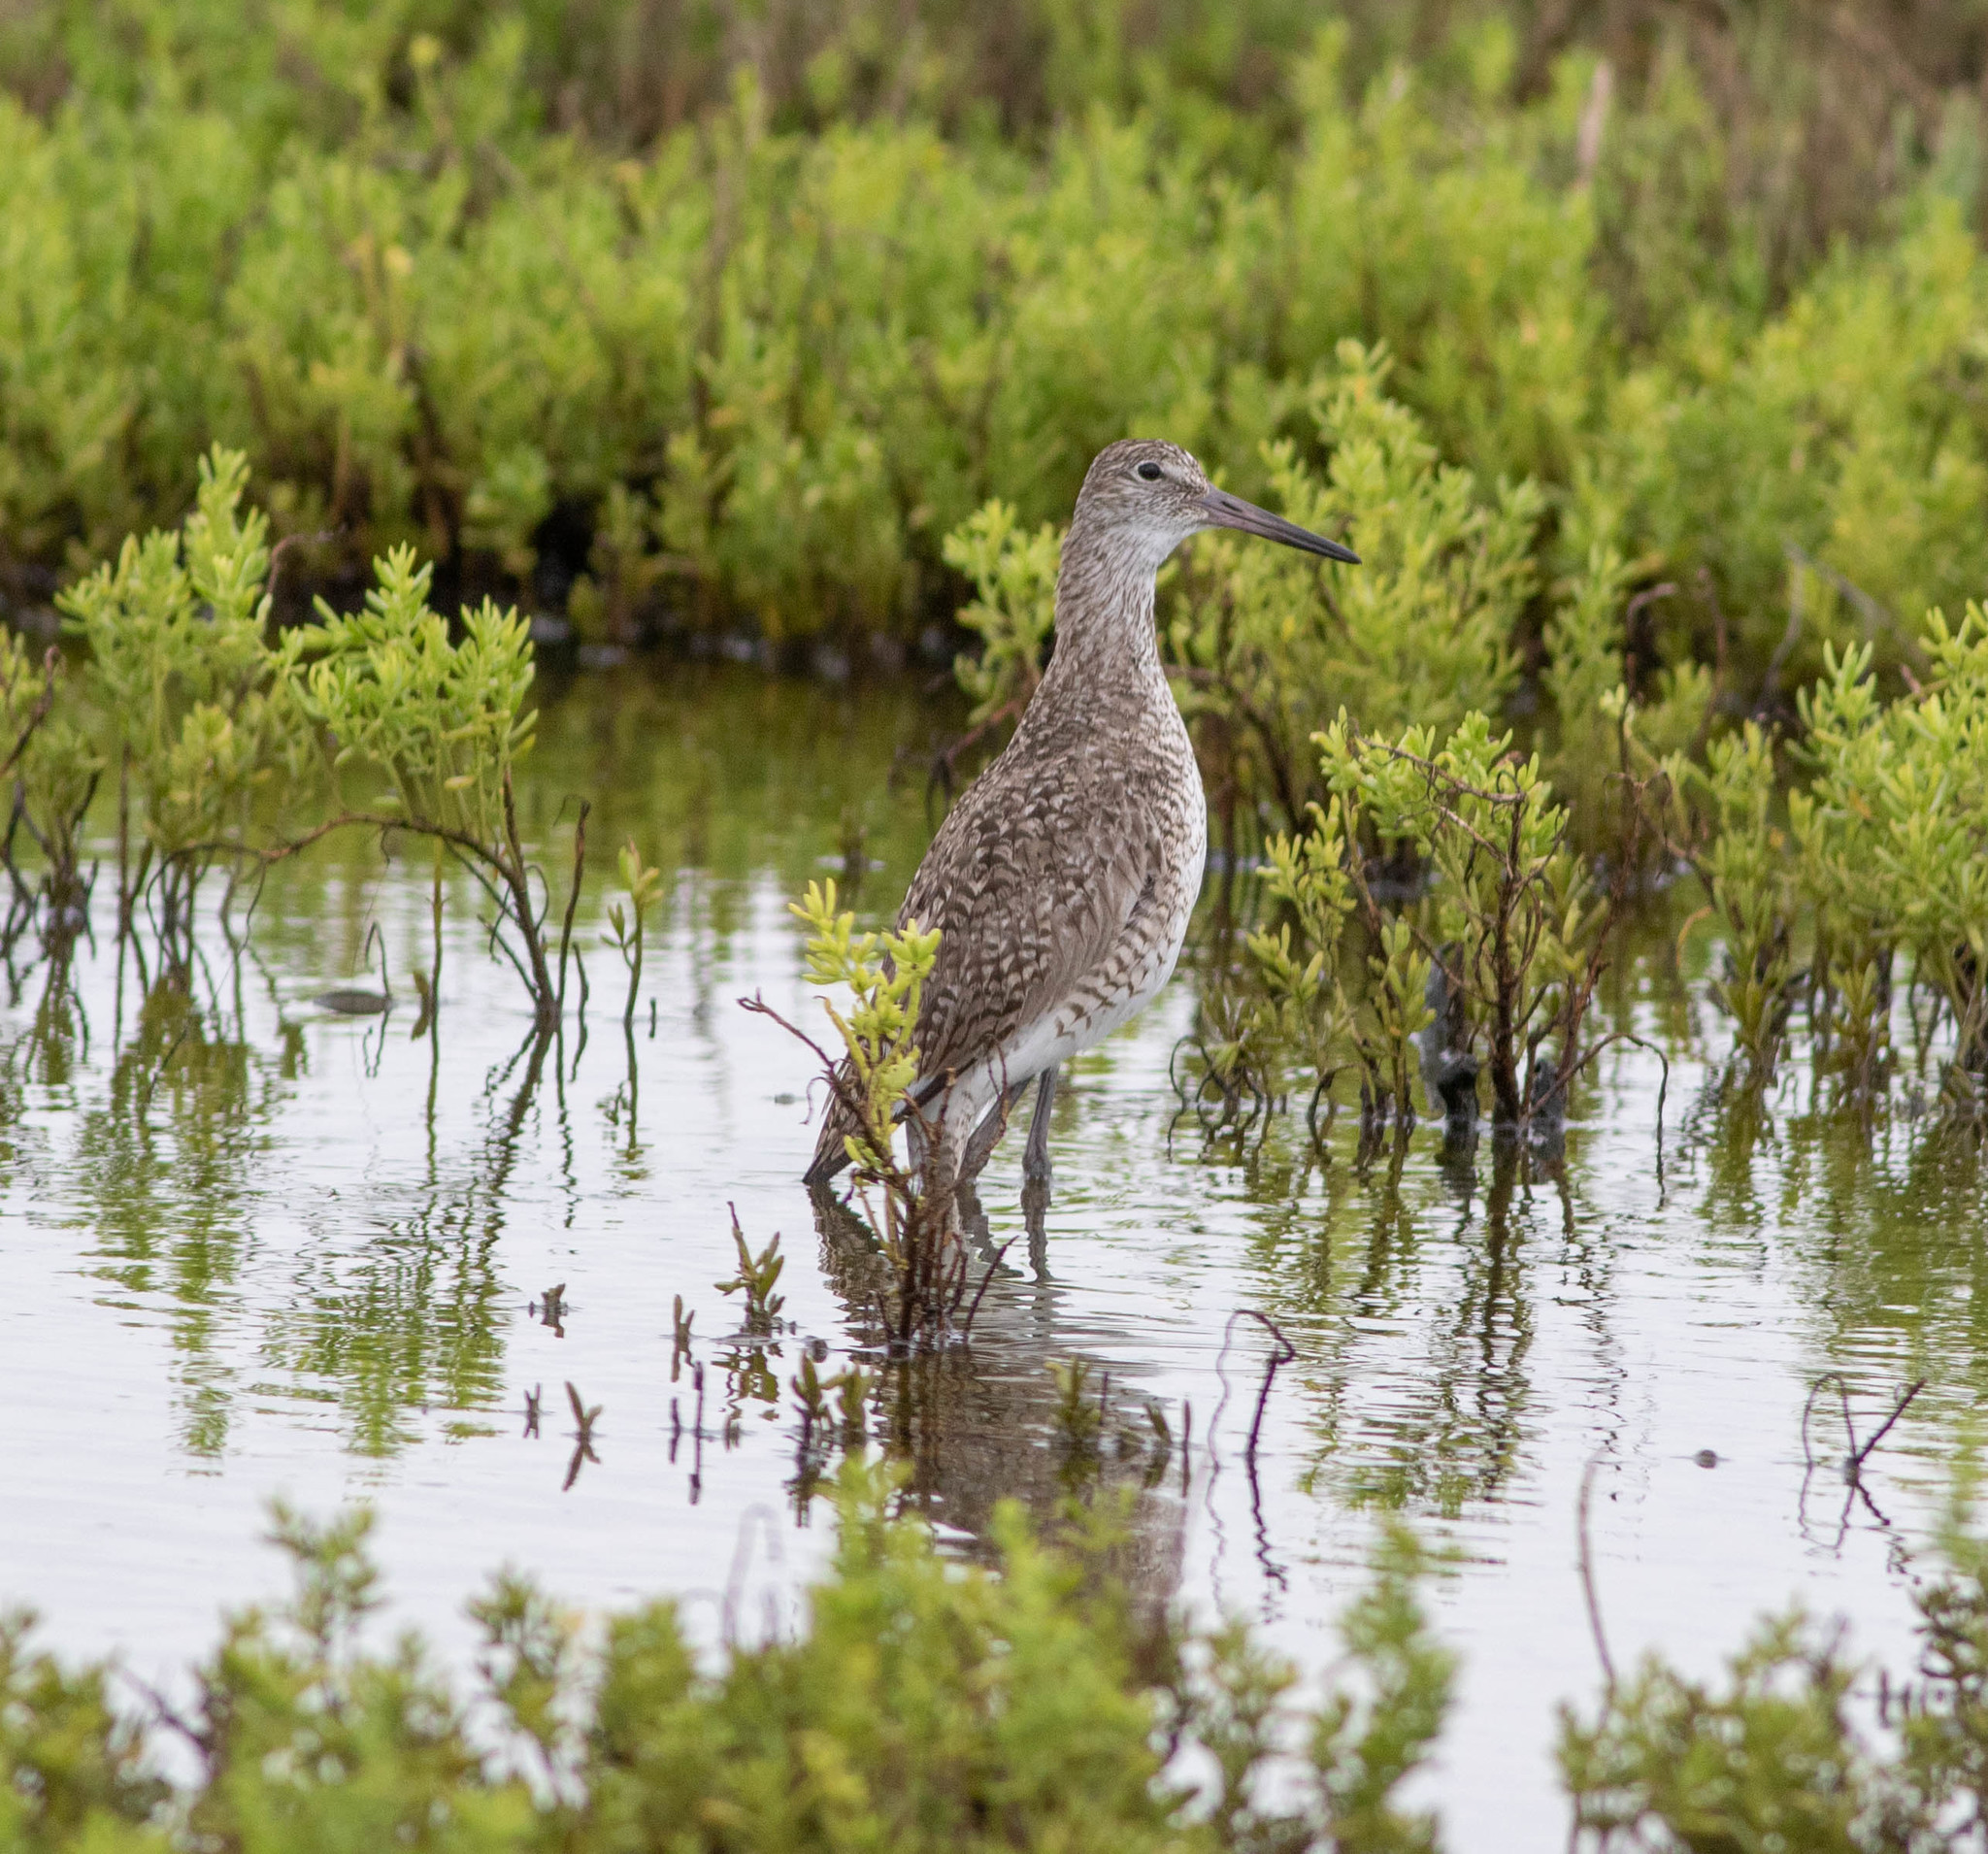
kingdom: Animalia
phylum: Chordata
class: Aves
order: Charadriiformes
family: Scolopacidae
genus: Tringa
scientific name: Tringa semipalmata
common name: Willet
